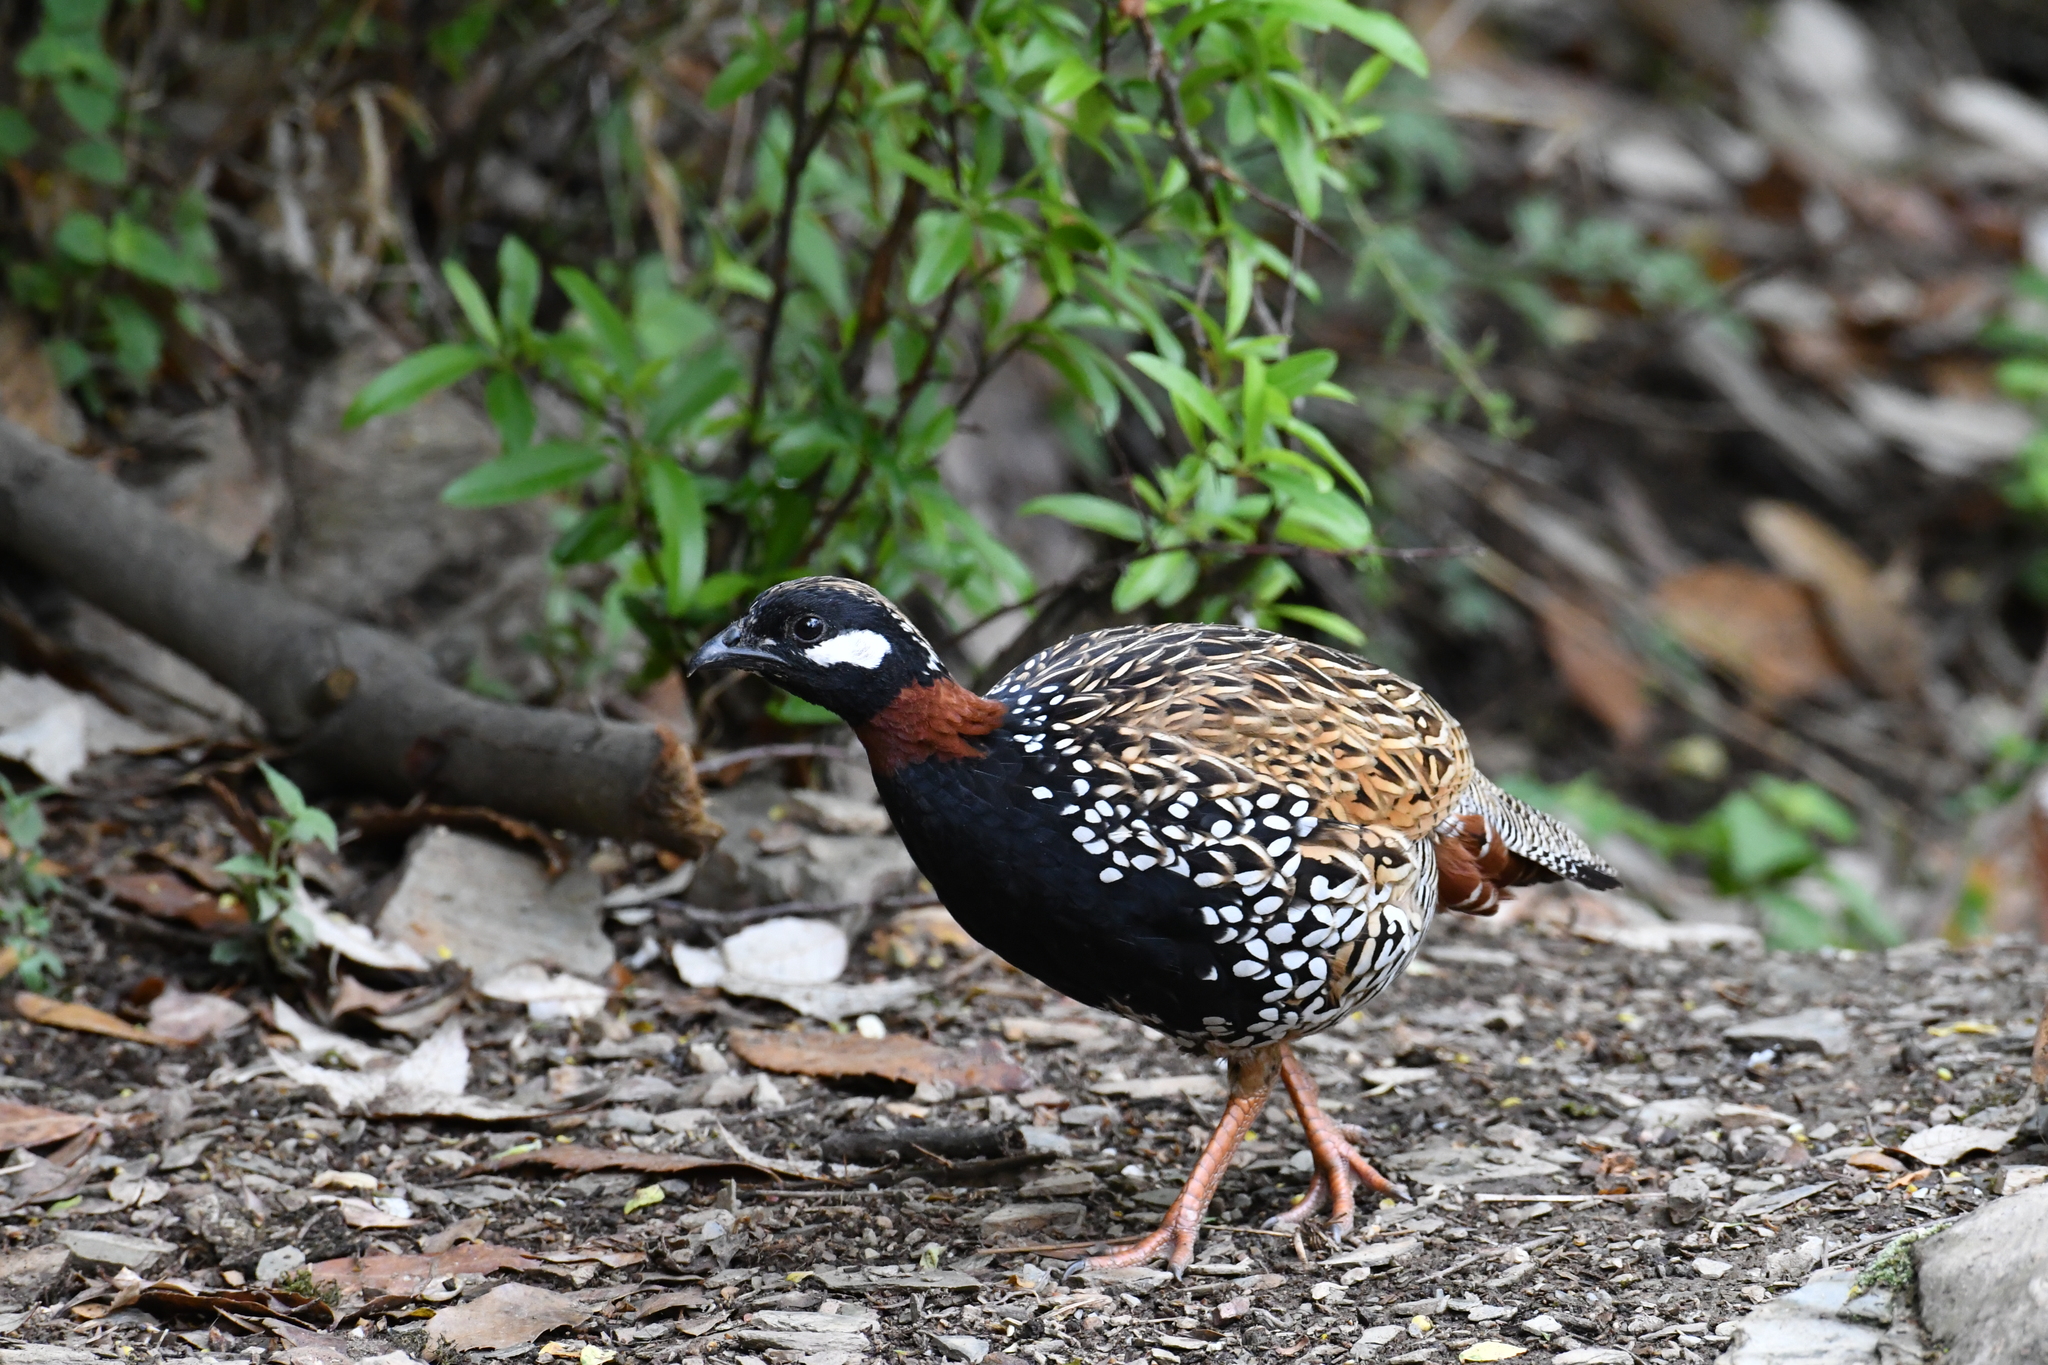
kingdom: Animalia
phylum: Chordata
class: Aves
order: Galliformes
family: Phasianidae
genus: Francolinus
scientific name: Francolinus francolinus
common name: Black francolin
